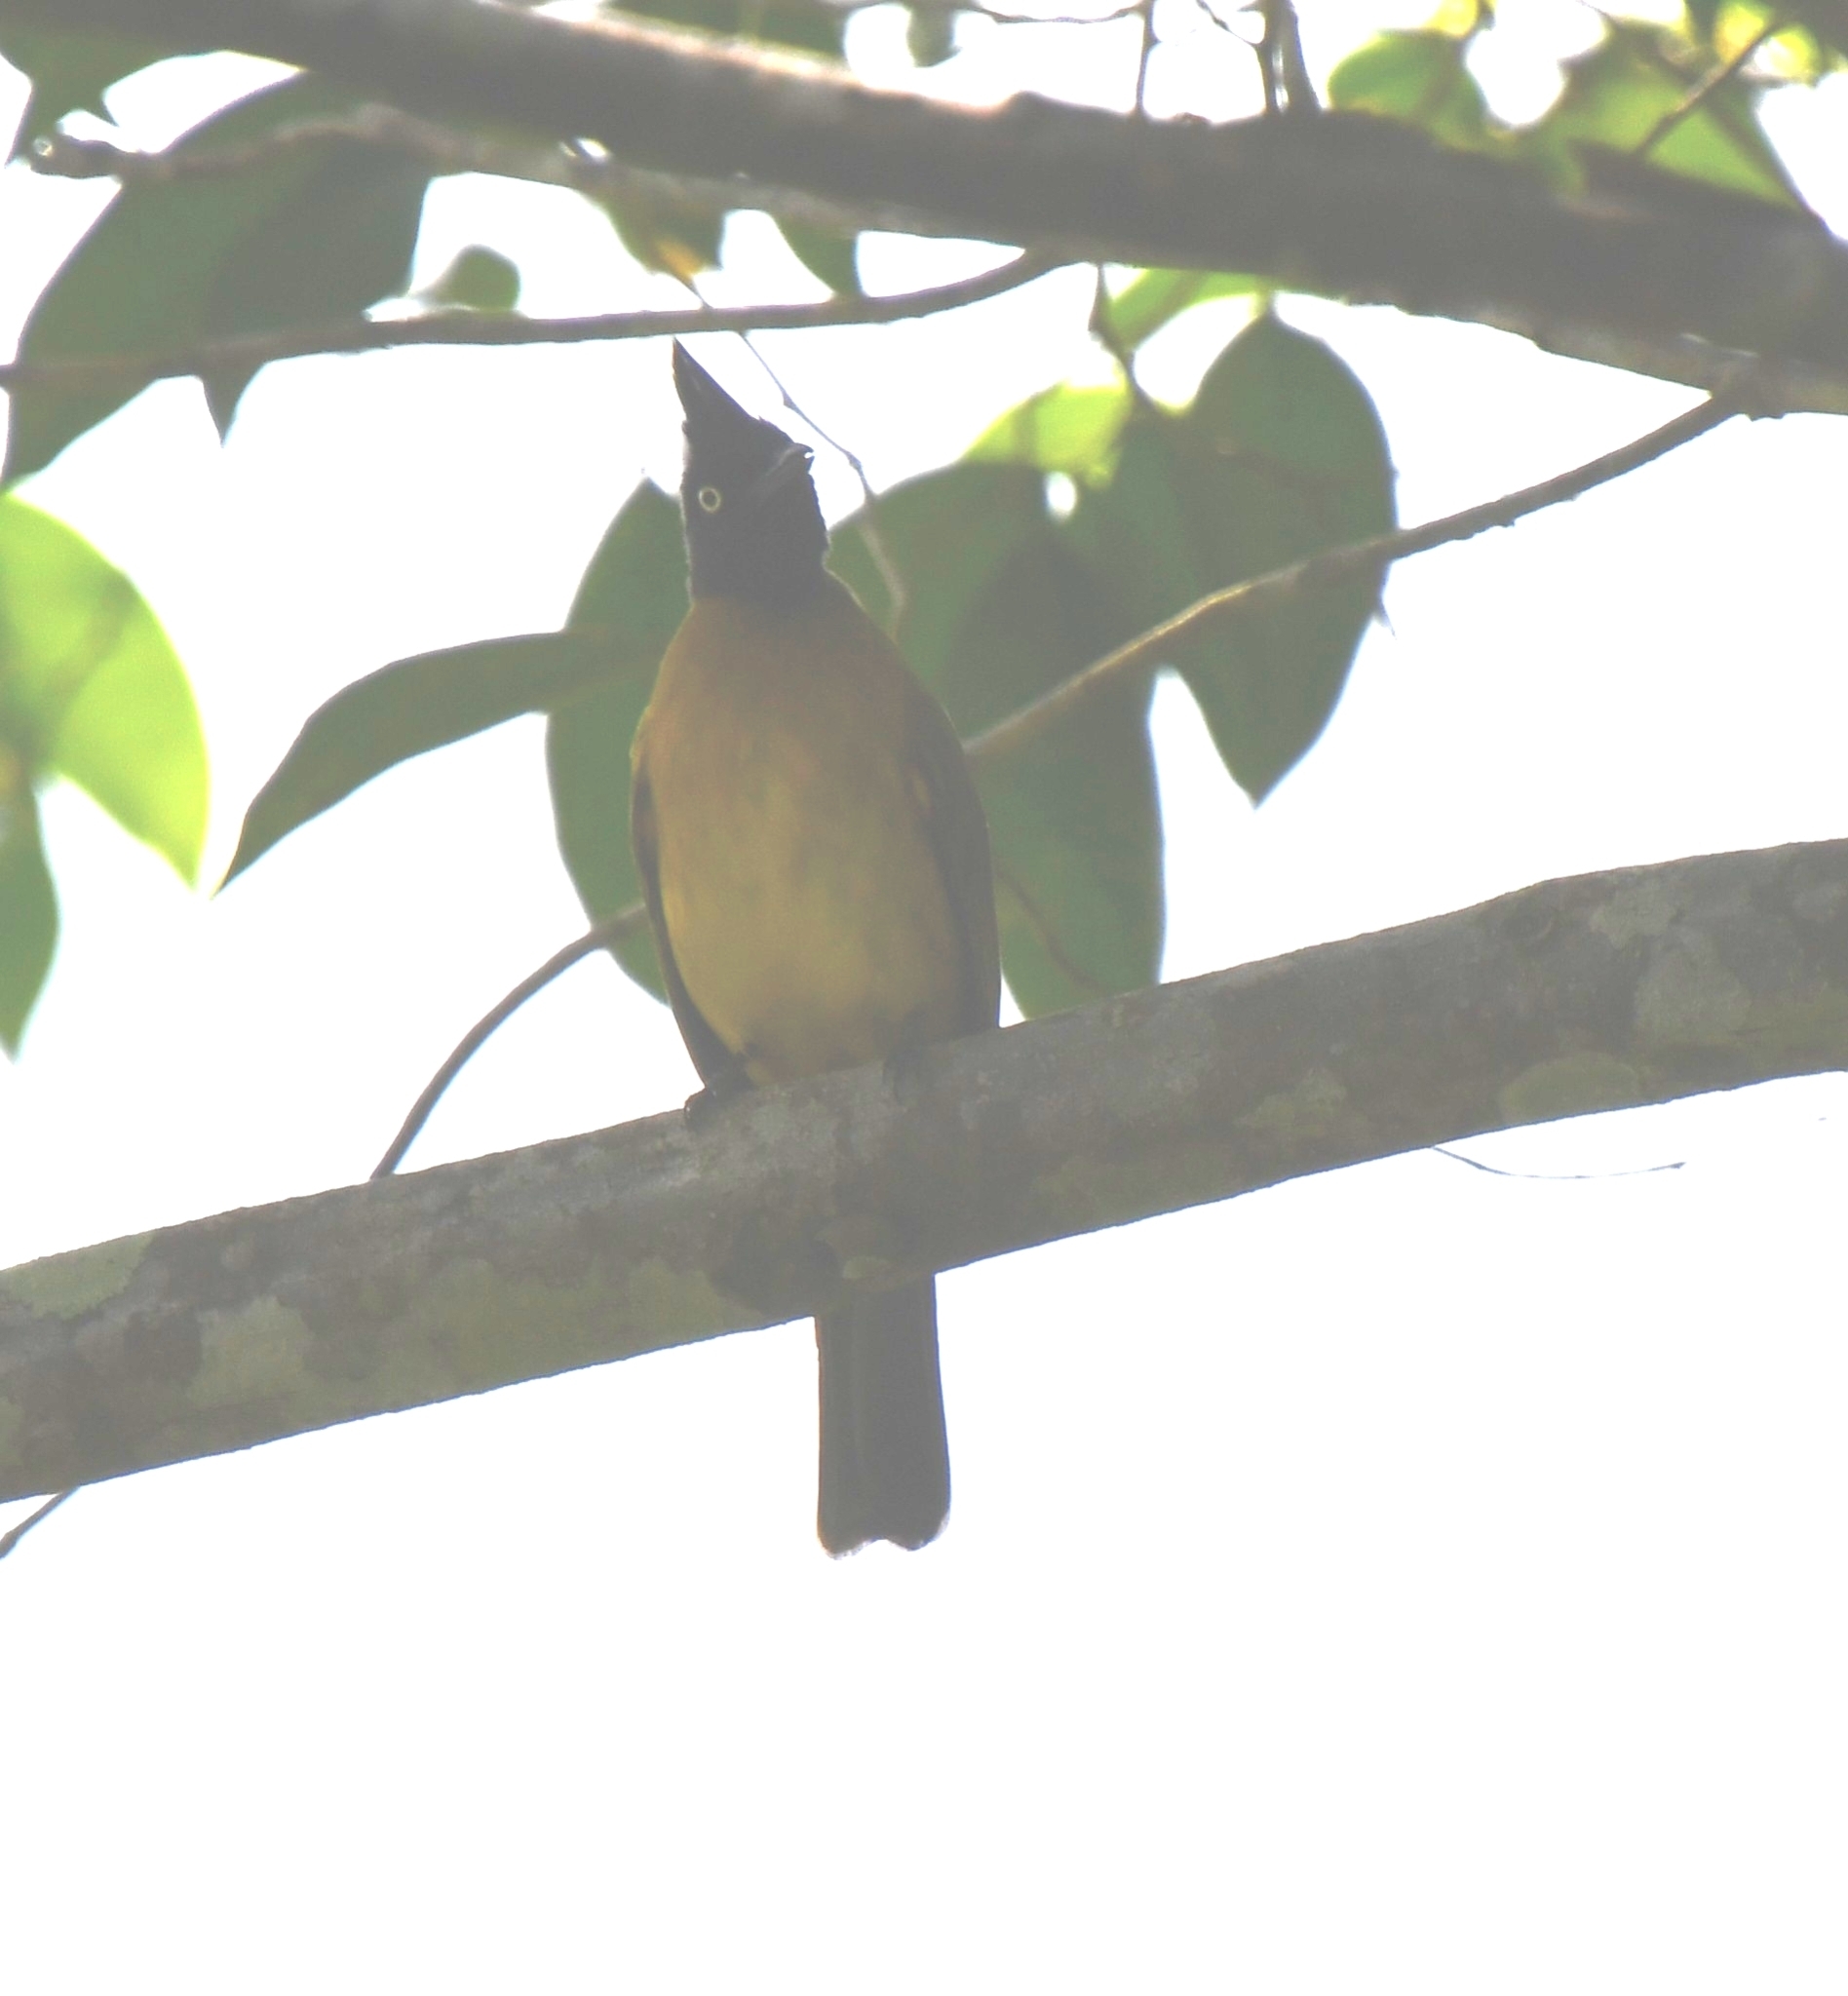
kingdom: Animalia
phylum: Chordata
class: Aves
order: Passeriformes
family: Pycnonotidae
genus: Pycnonotus
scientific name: Pycnonotus flaviventris
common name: Black-crested bulbul
